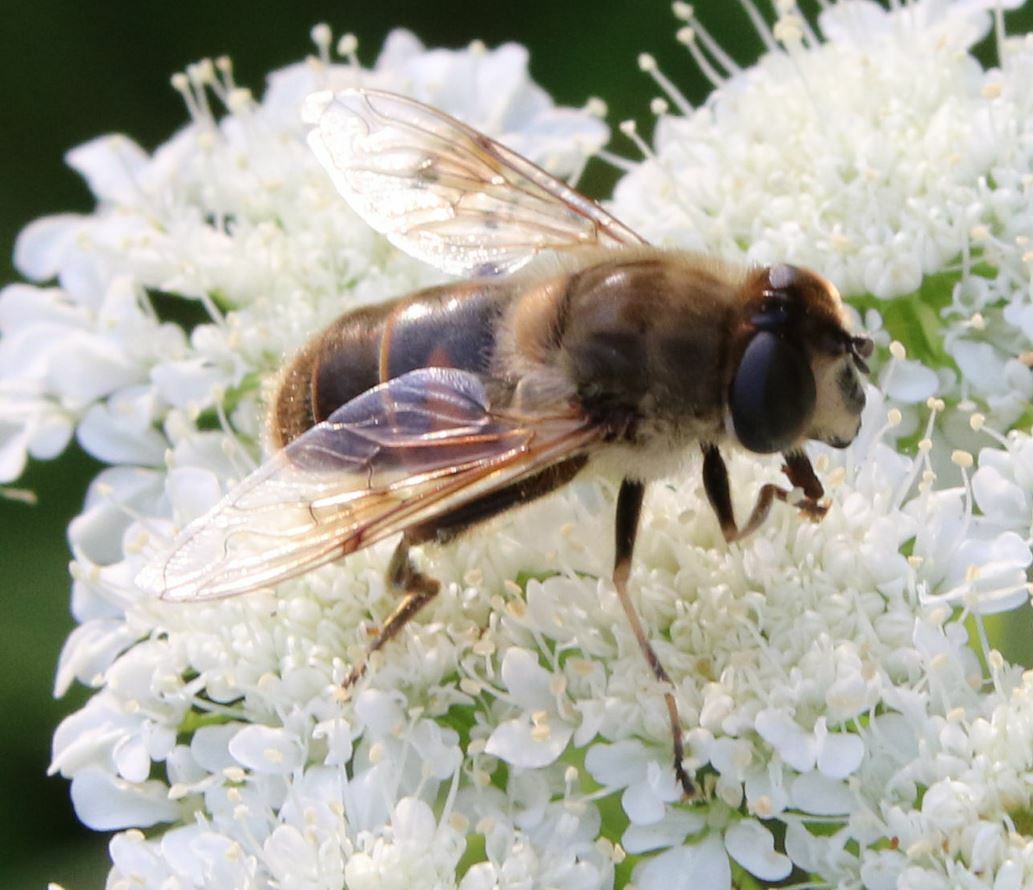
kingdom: Animalia
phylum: Arthropoda
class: Insecta
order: Diptera
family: Syrphidae
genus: Eristalis
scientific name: Eristalis tenax
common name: Drone fly
